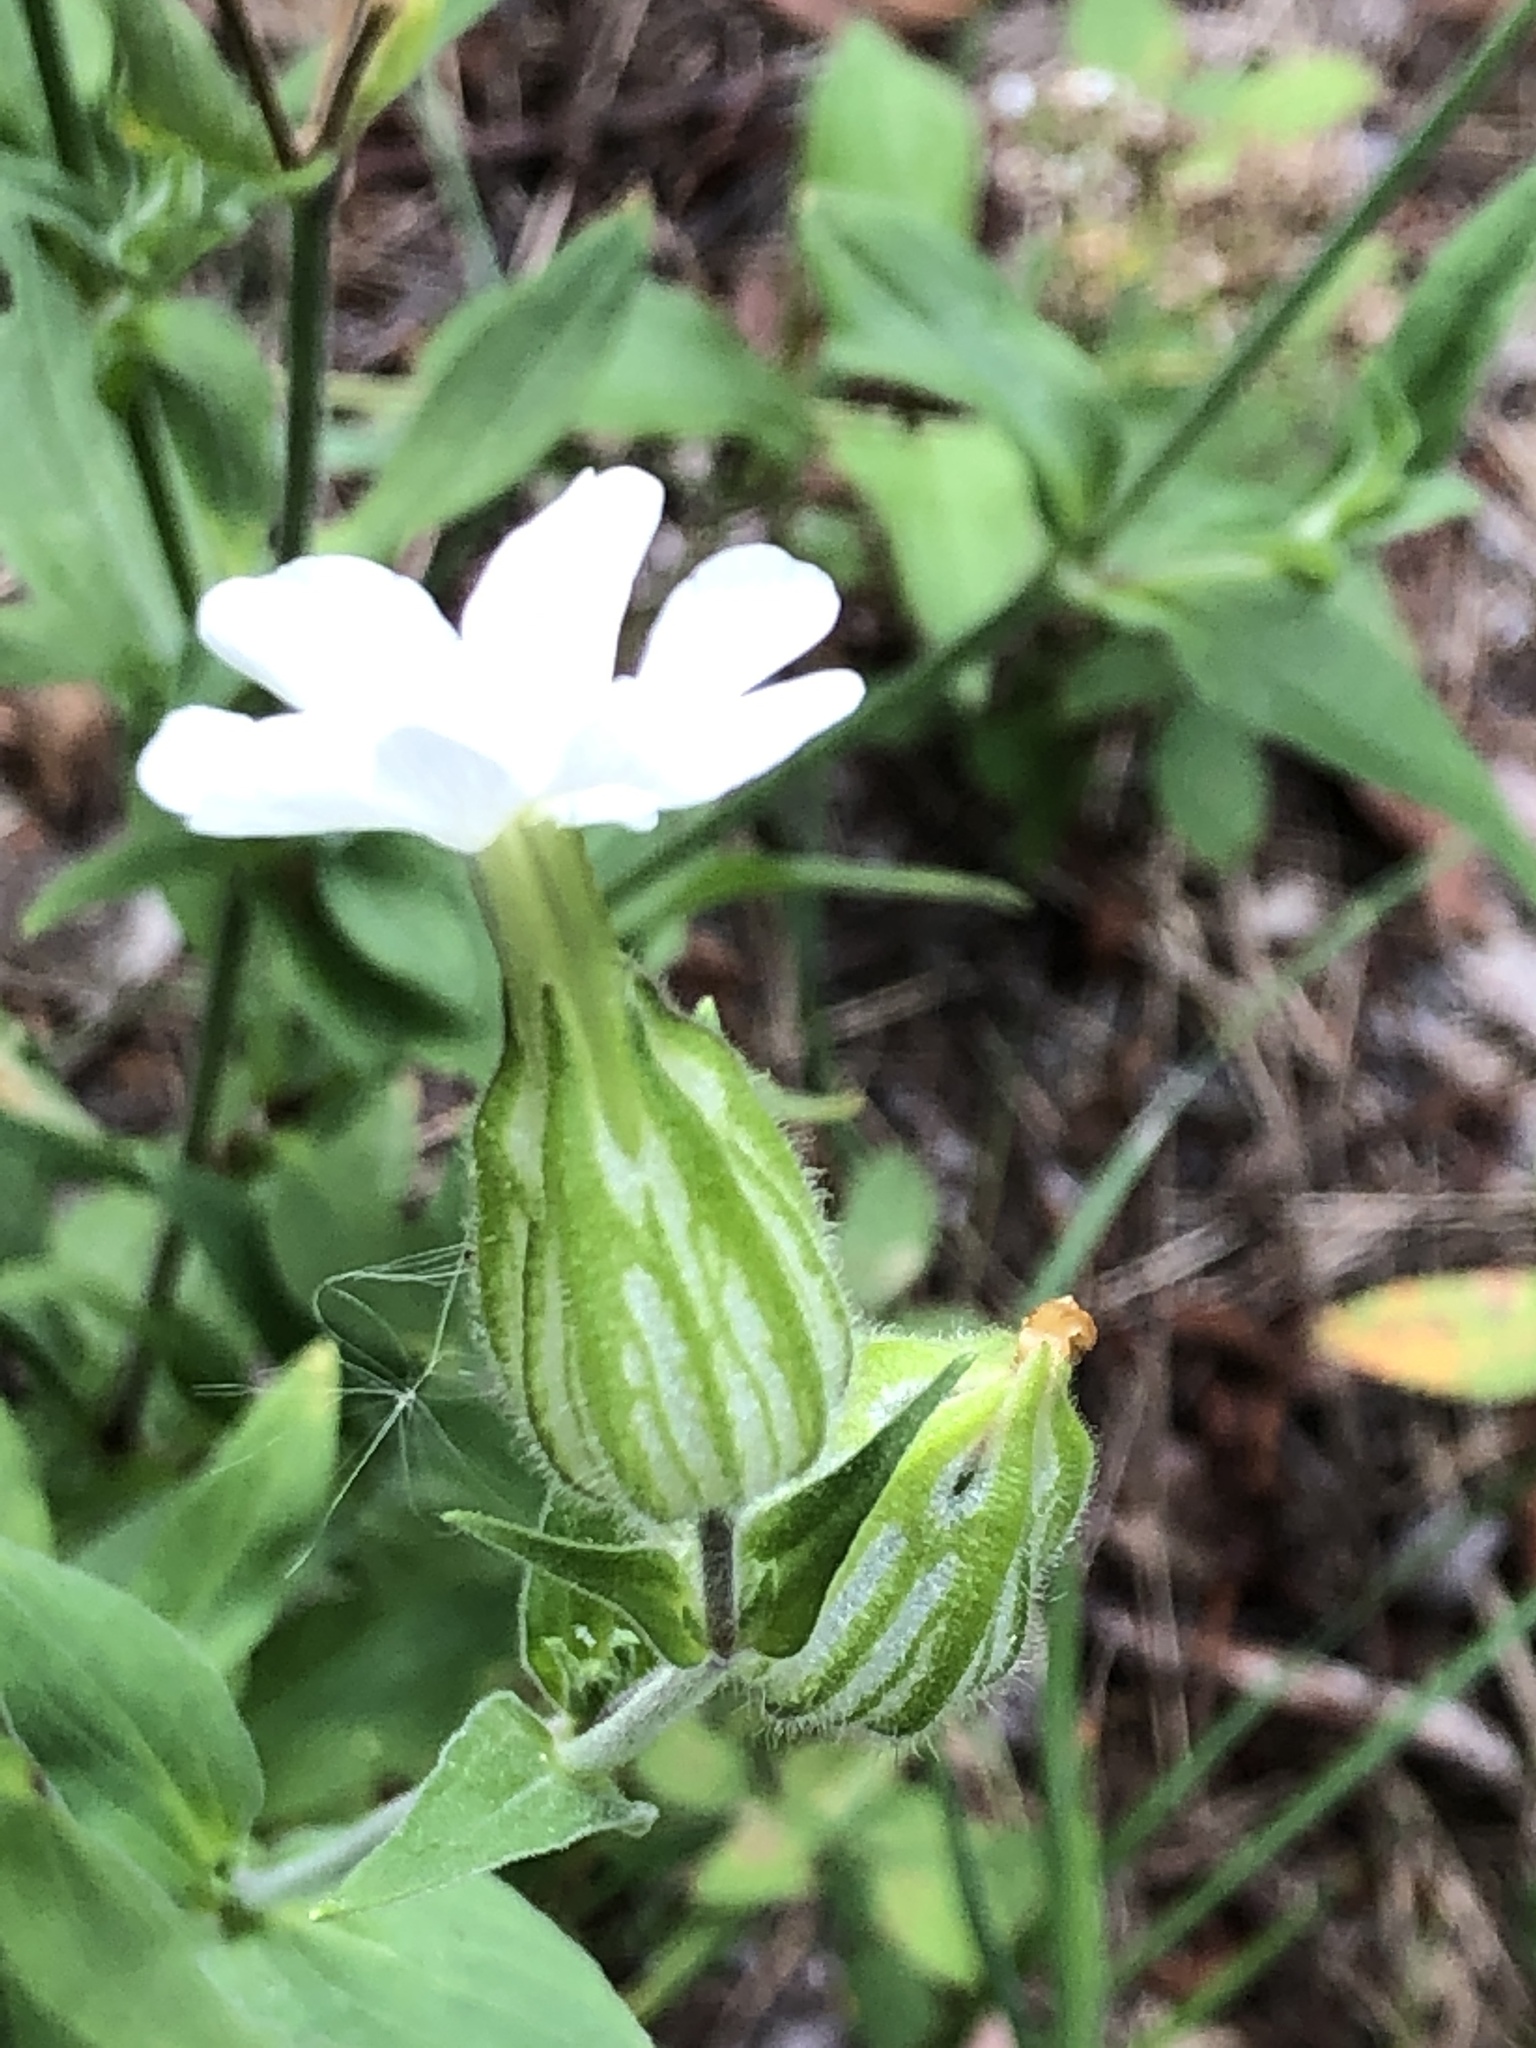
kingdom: Plantae
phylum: Tracheophyta
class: Magnoliopsida
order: Caryophyllales
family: Caryophyllaceae
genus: Silene
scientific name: Silene latifolia
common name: White campion
